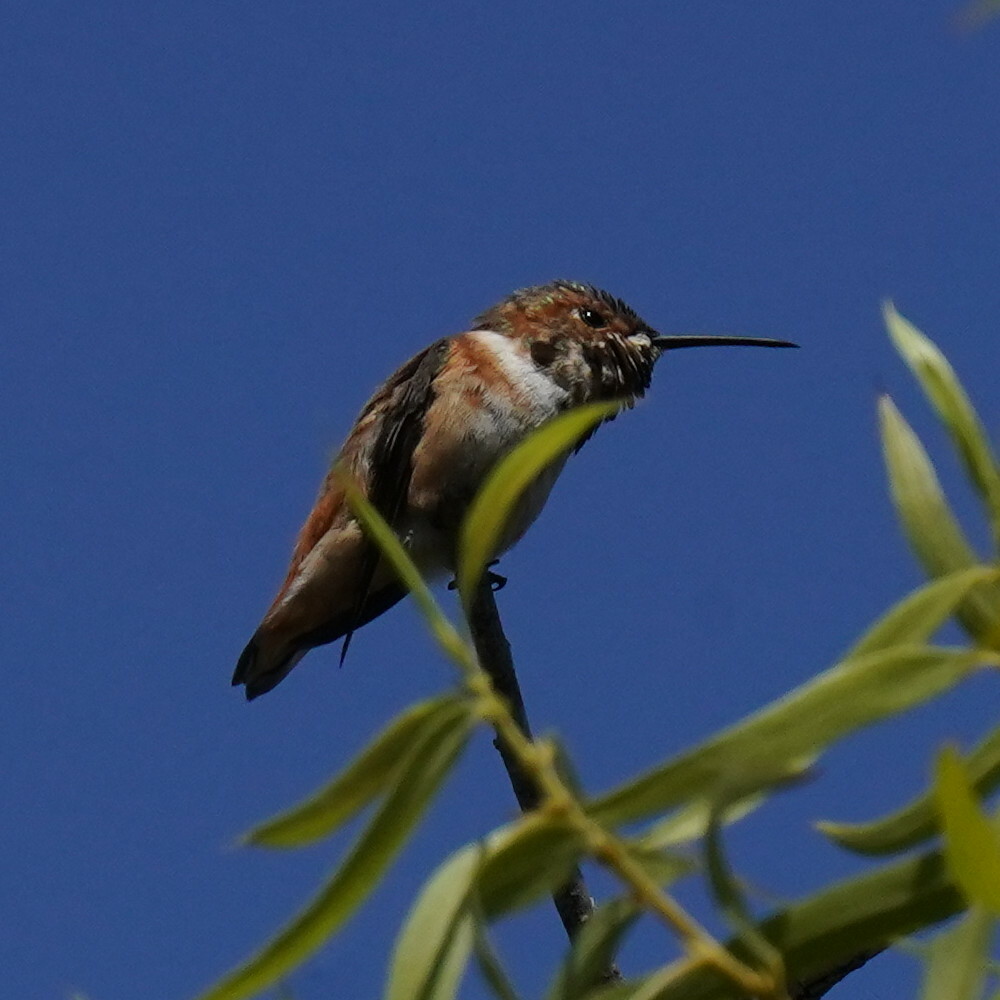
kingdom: Animalia
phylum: Chordata
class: Aves
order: Apodiformes
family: Trochilidae
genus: Selasphorus
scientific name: Selasphorus sasin
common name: Allen's hummingbird
